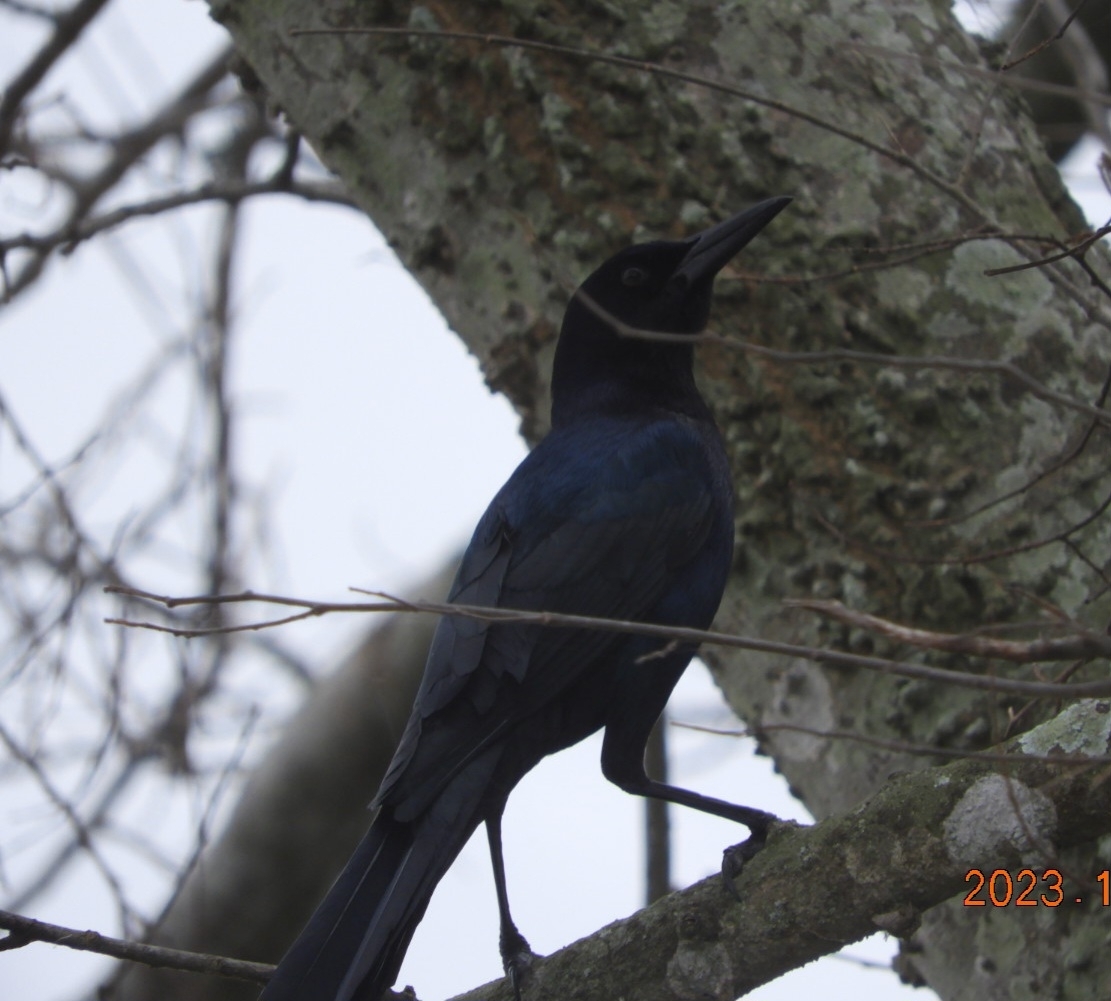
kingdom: Animalia
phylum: Chordata
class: Aves
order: Passeriformes
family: Icteridae
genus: Quiscalus
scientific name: Quiscalus major
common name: Boat-tailed grackle
